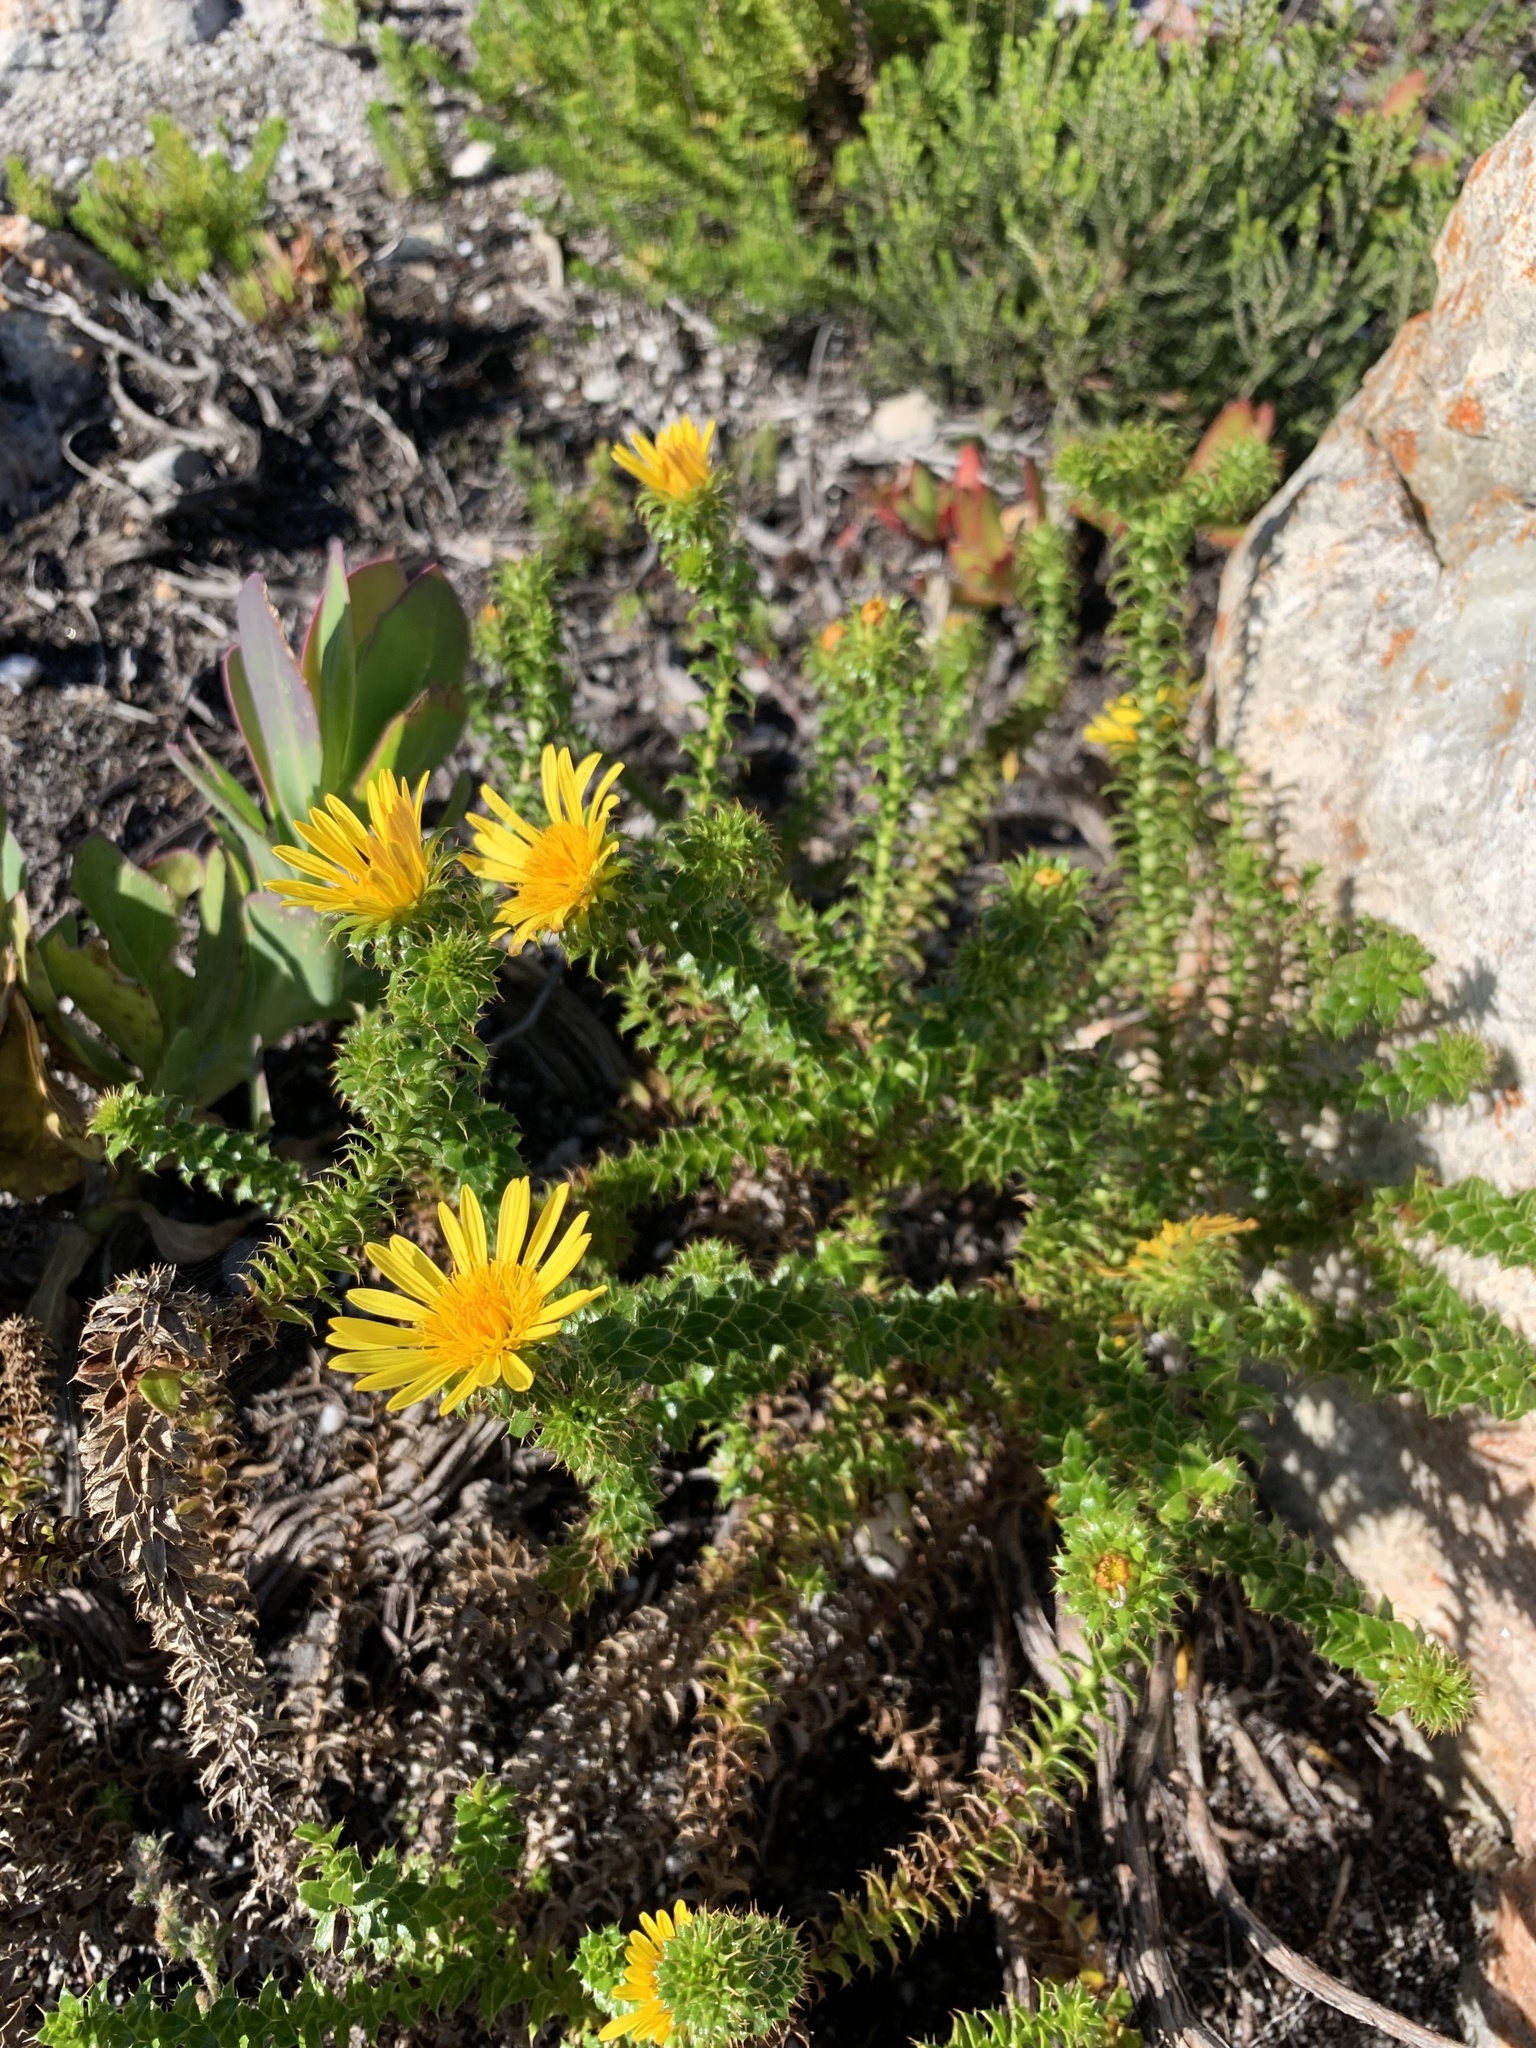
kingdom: Plantae
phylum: Tracheophyta
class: Magnoliopsida
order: Asterales
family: Asteraceae
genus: Cullumia
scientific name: Cullumia setosa
